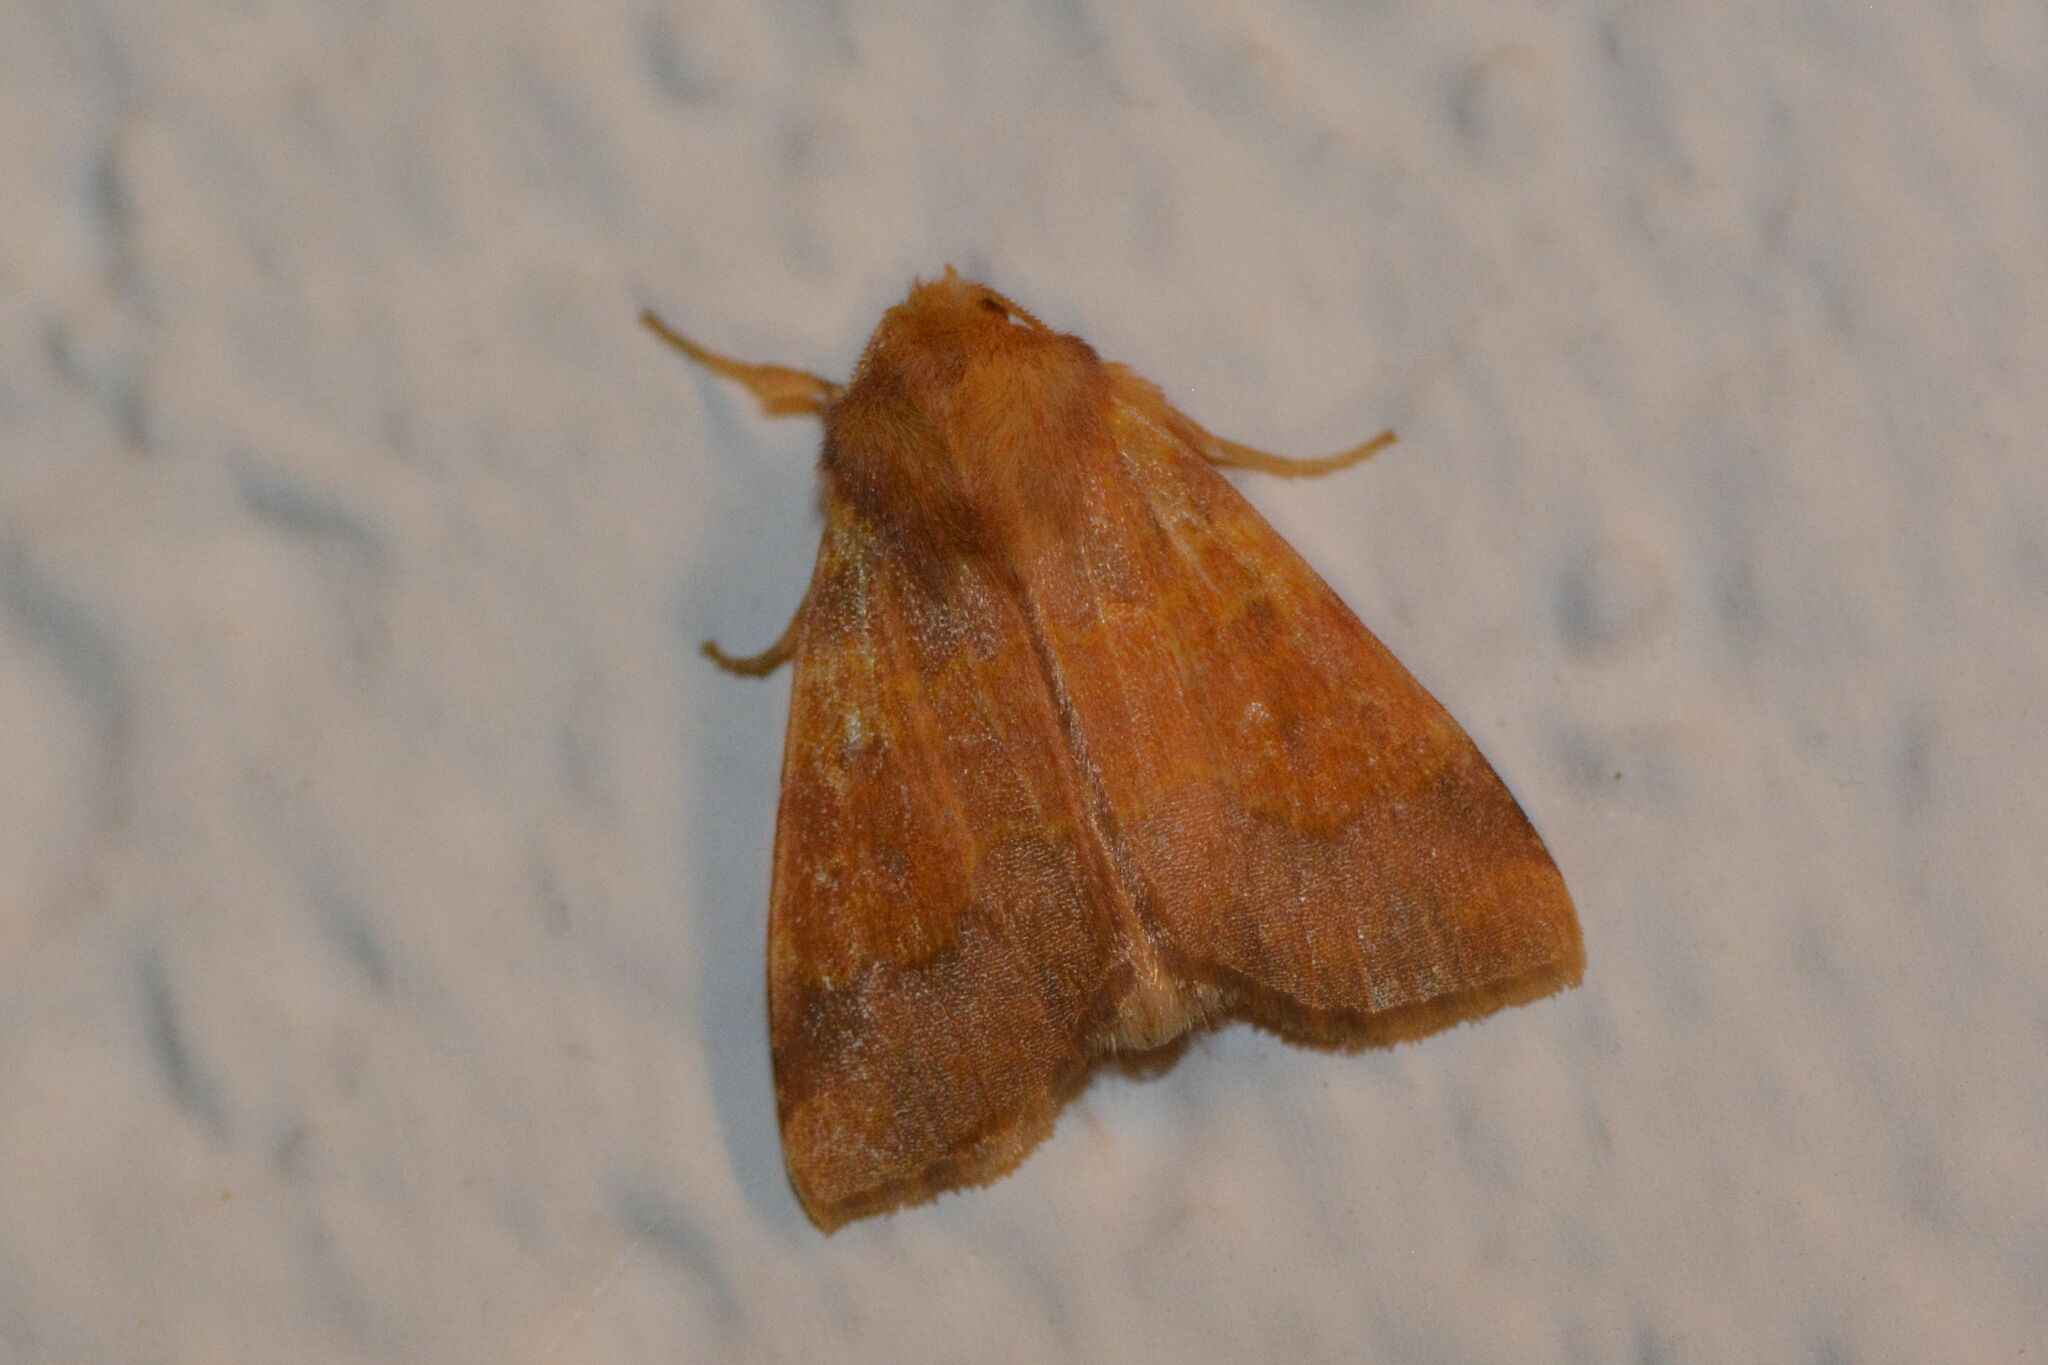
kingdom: Animalia
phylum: Arthropoda
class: Insecta
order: Lepidoptera
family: Noctuidae
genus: Tiliacea
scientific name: Tiliacea aurago
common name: Barred sallow
